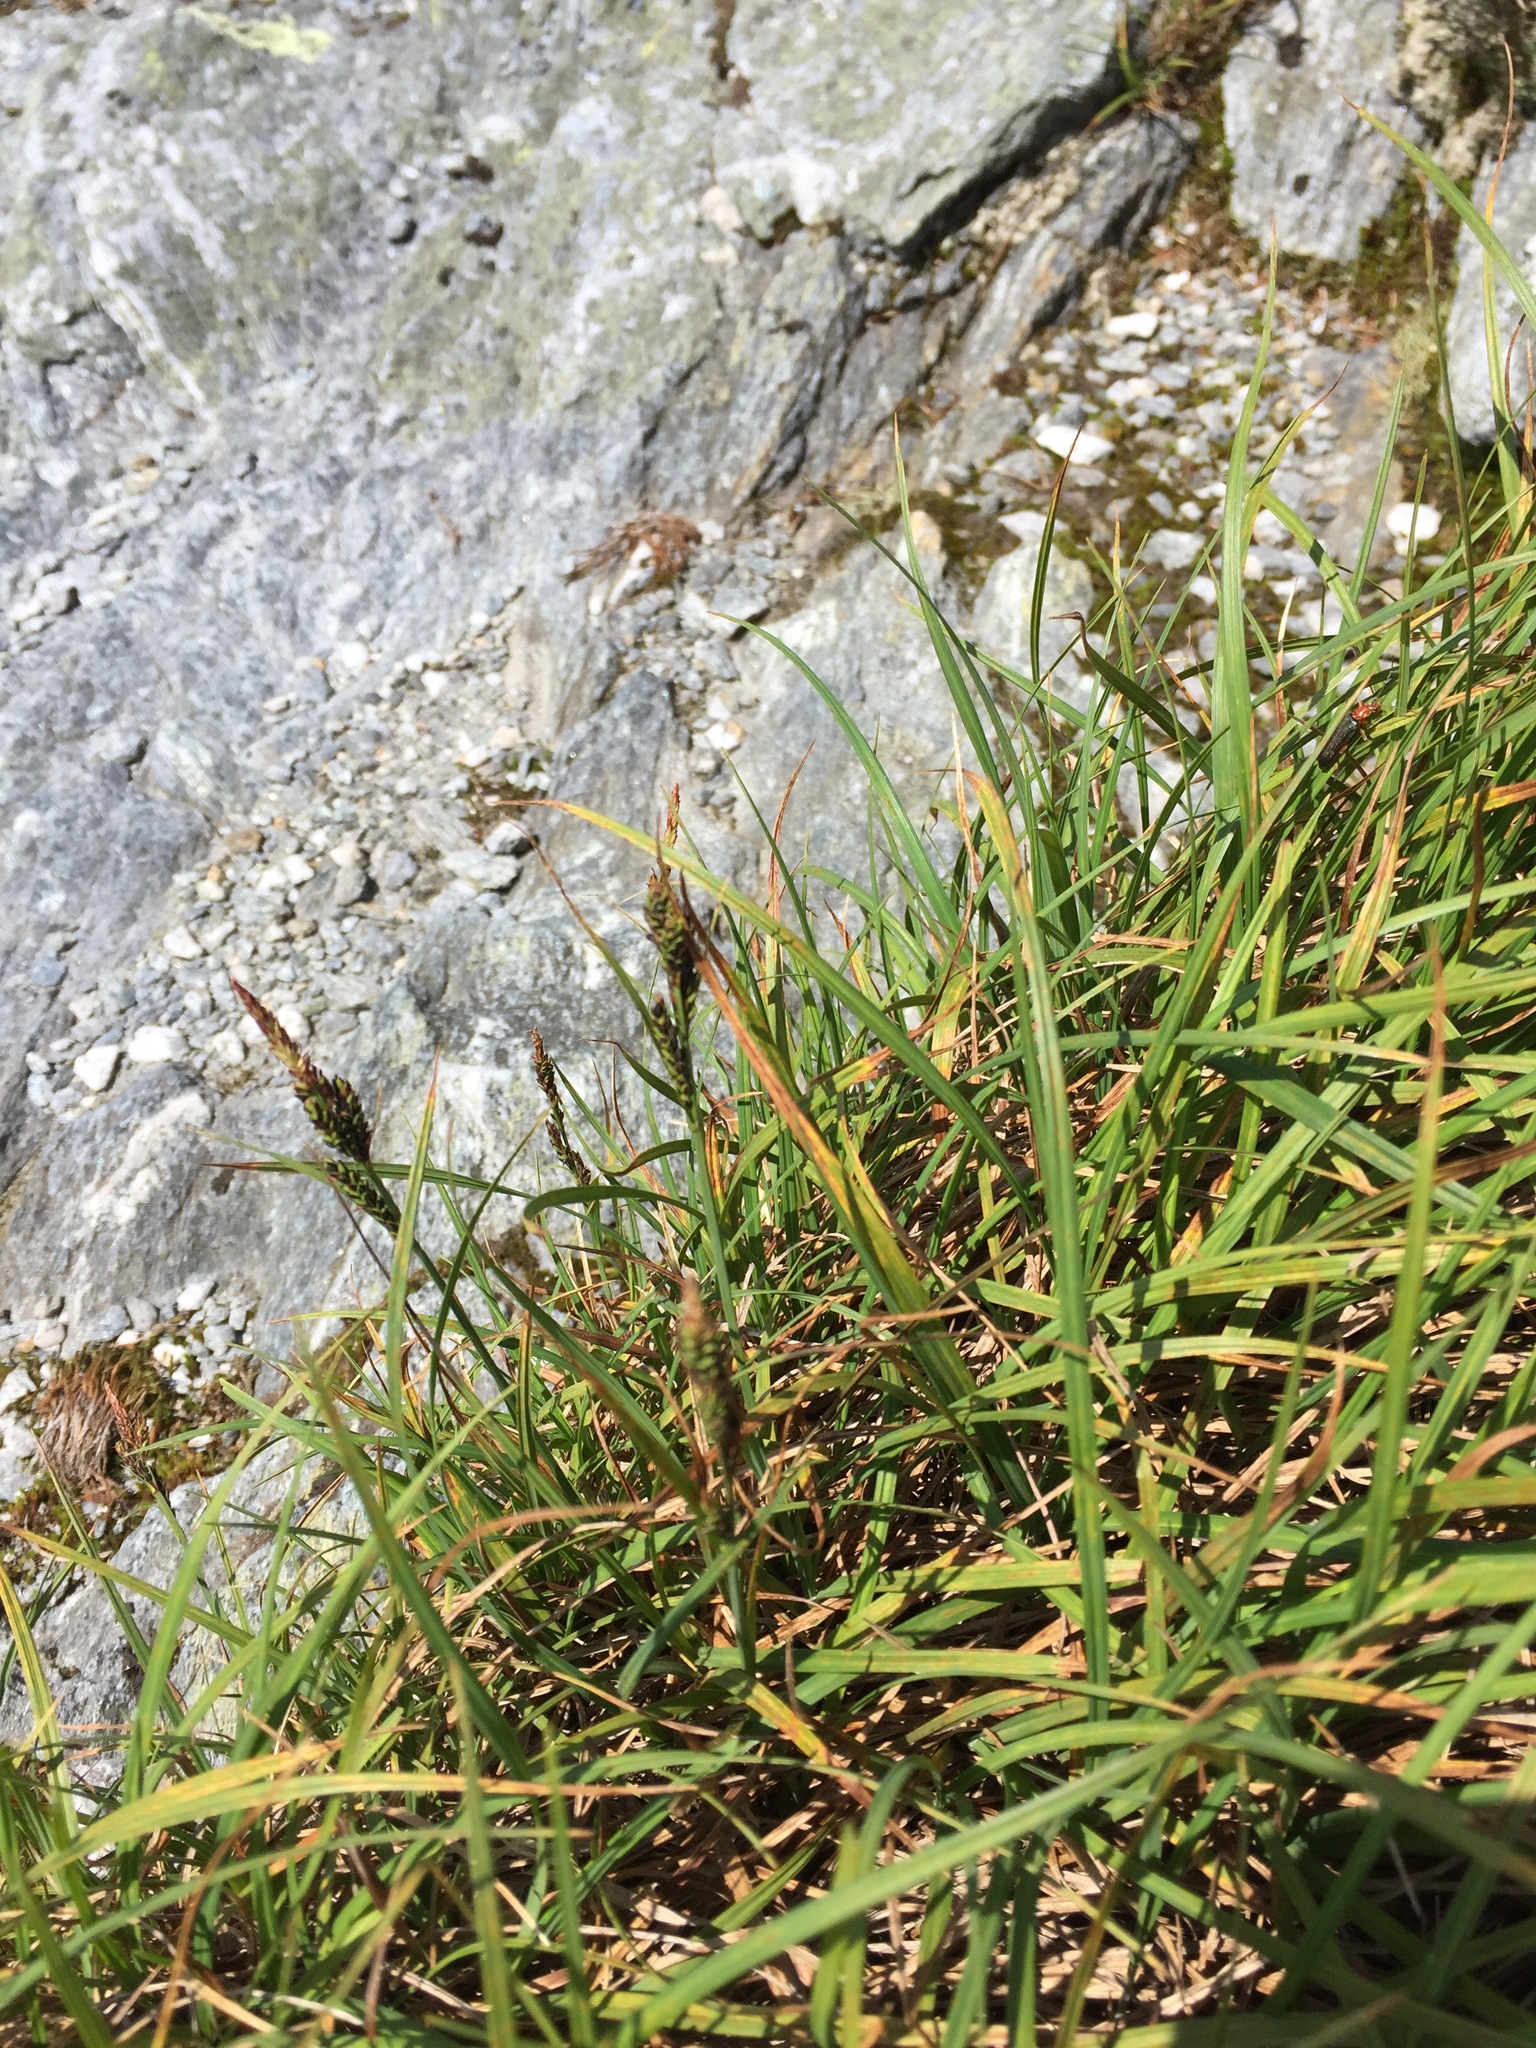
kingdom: Plantae
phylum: Tracheophyta
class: Liliopsida
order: Poales
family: Cyperaceae
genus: Carex
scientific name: Carex bigelowii
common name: Stiff sedge
